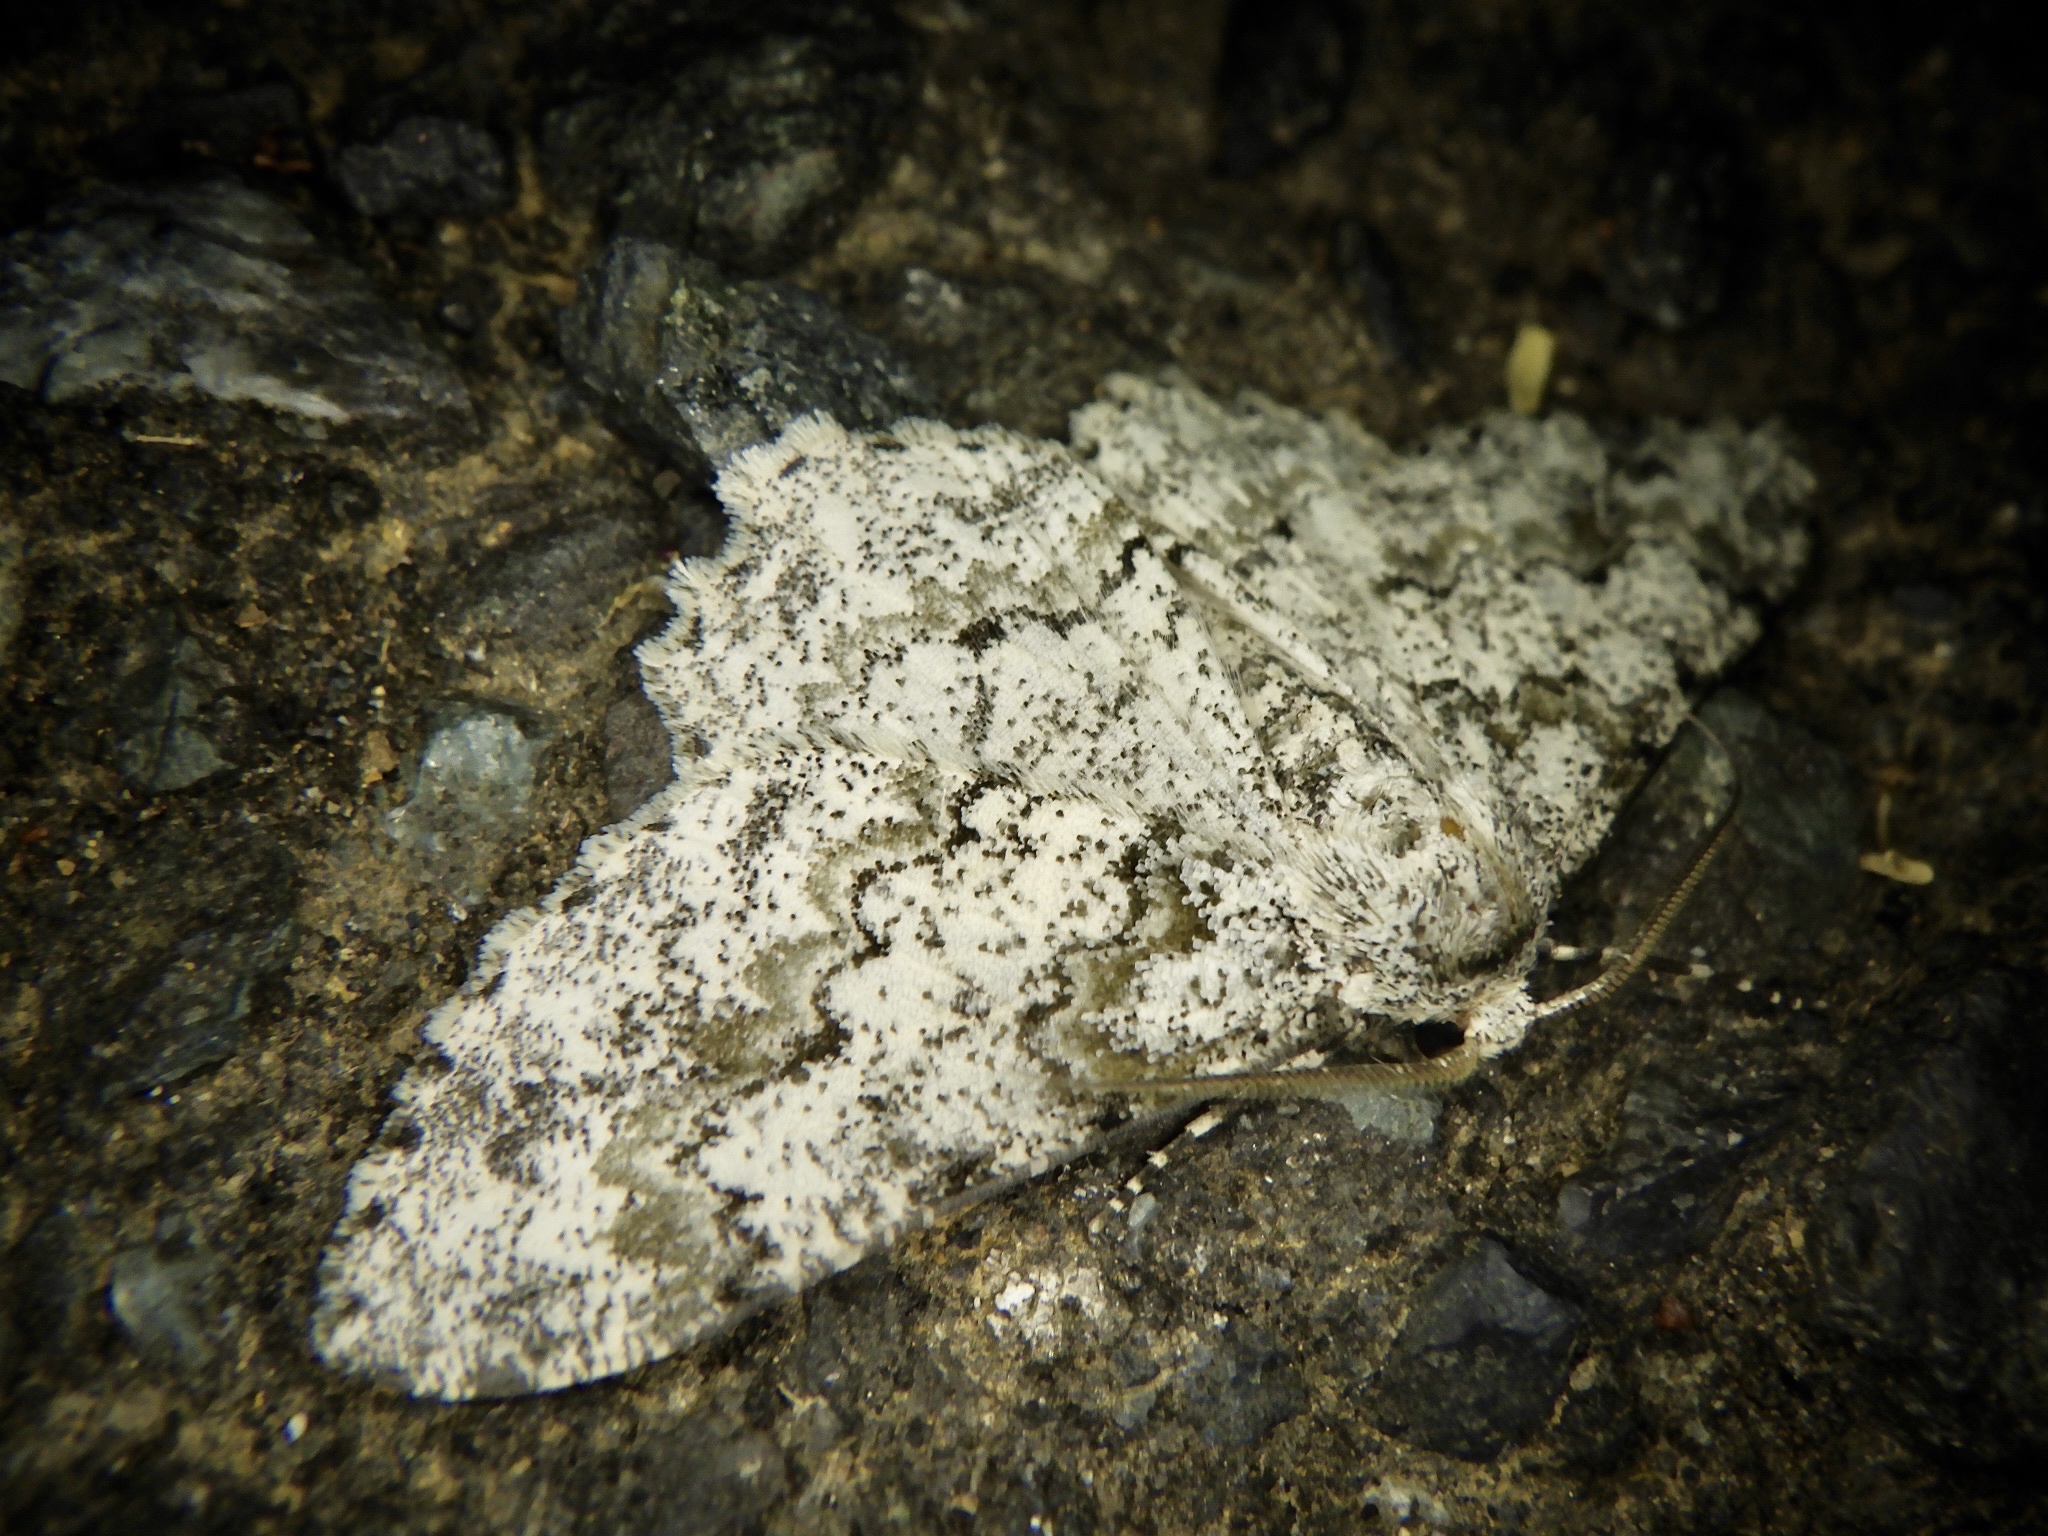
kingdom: Animalia
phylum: Arthropoda
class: Insecta
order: Lepidoptera
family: Geometridae
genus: Cusiala
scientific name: Cusiala stipitaria
